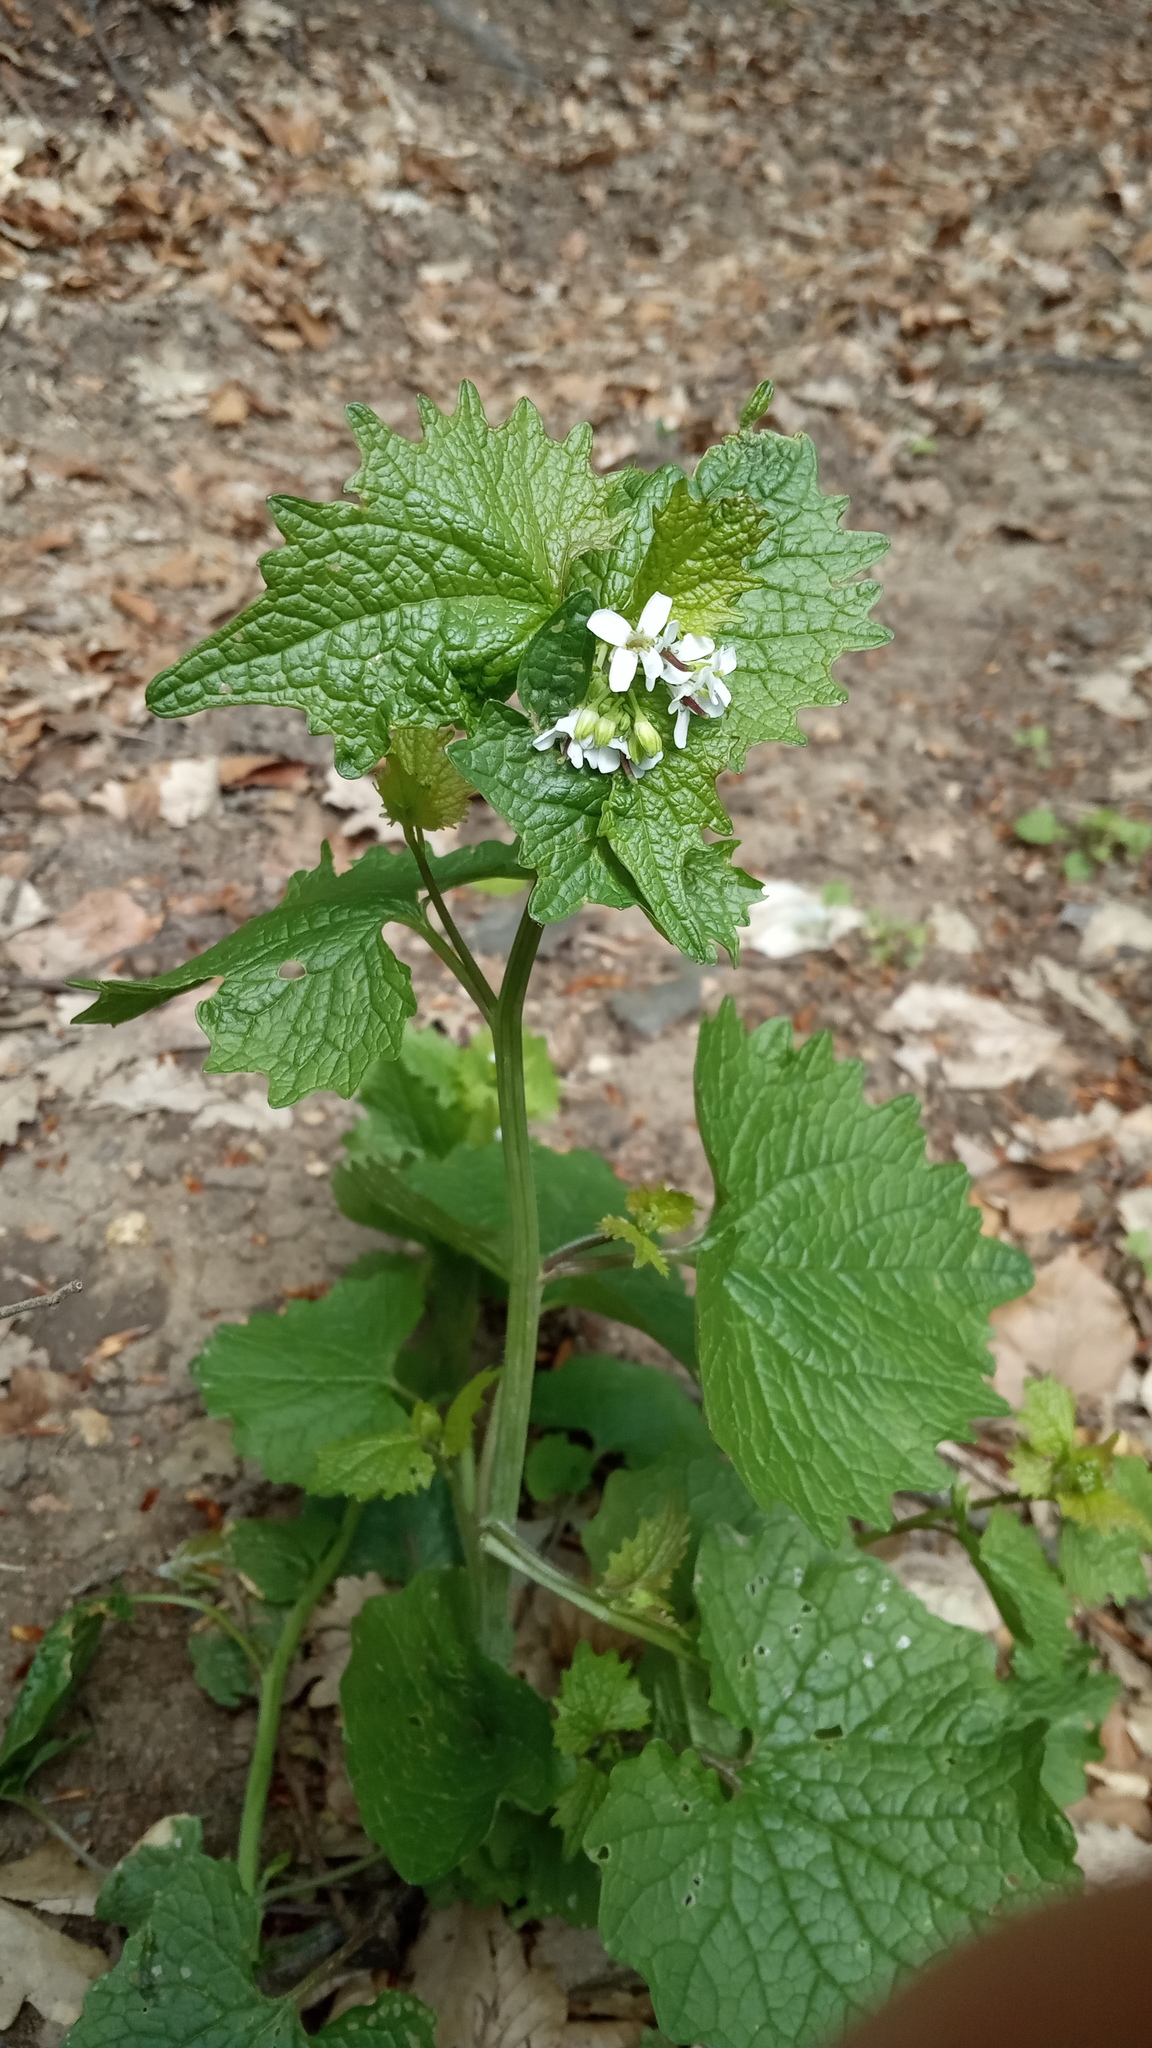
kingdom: Plantae
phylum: Tracheophyta
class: Magnoliopsida
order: Brassicales
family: Brassicaceae
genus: Alliaria
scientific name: Alliaria petiolata
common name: Garlic mustard
